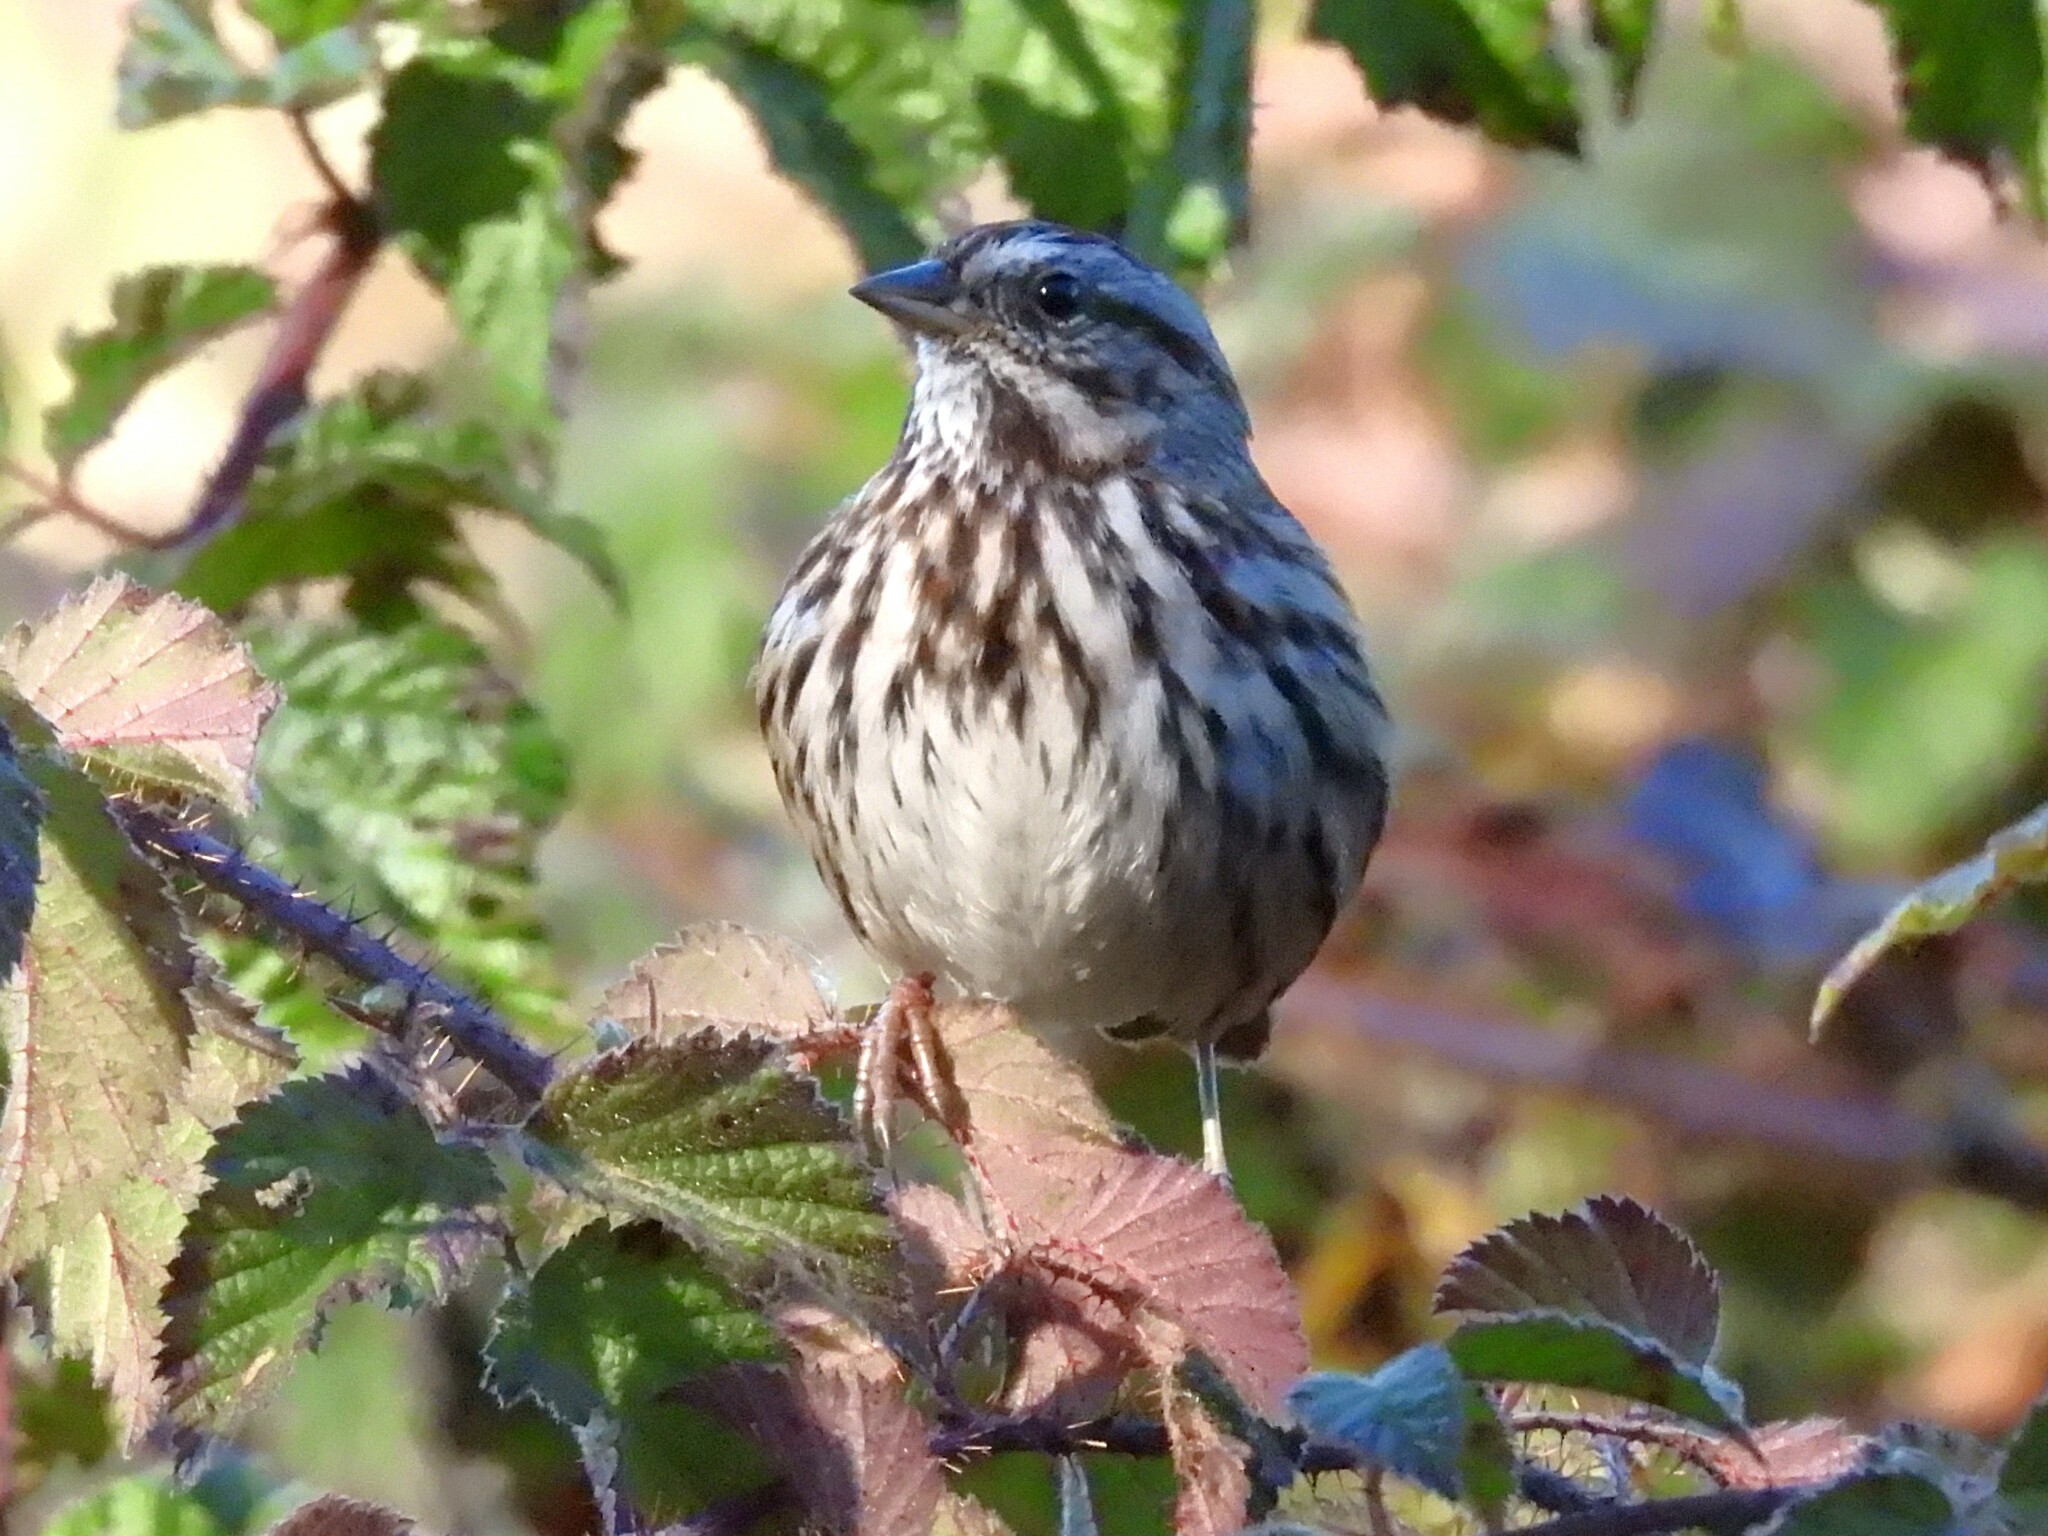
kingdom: Animalia
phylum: Chordata
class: Aves
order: Passeriformes
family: Passerellidae
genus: Melospiza
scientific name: Melospiza melodia
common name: Song sparrow
